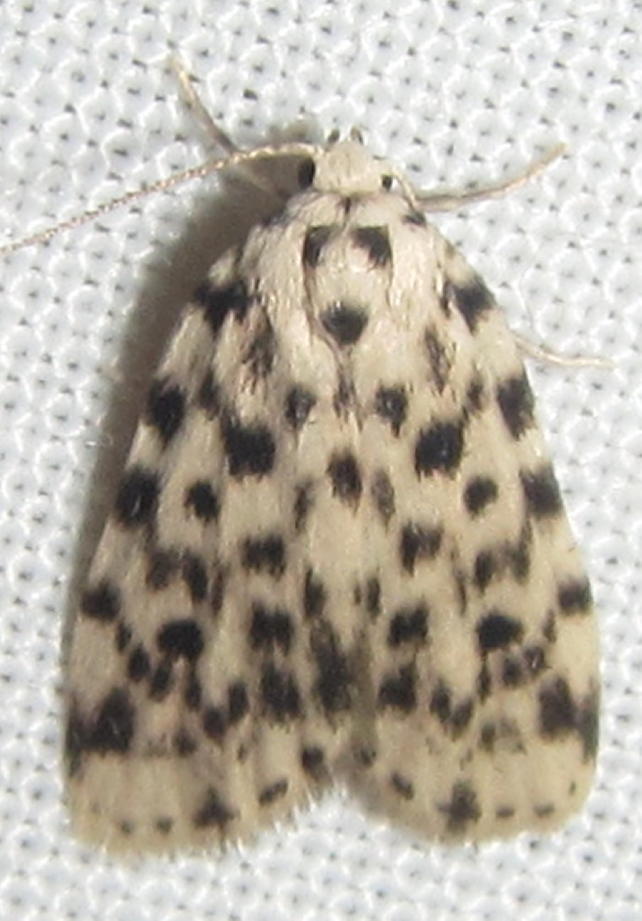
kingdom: Animalia
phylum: Arthropoda
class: Insecta
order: Lepidoptera
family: Erebidae
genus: Siccia
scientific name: Siccia caffra
